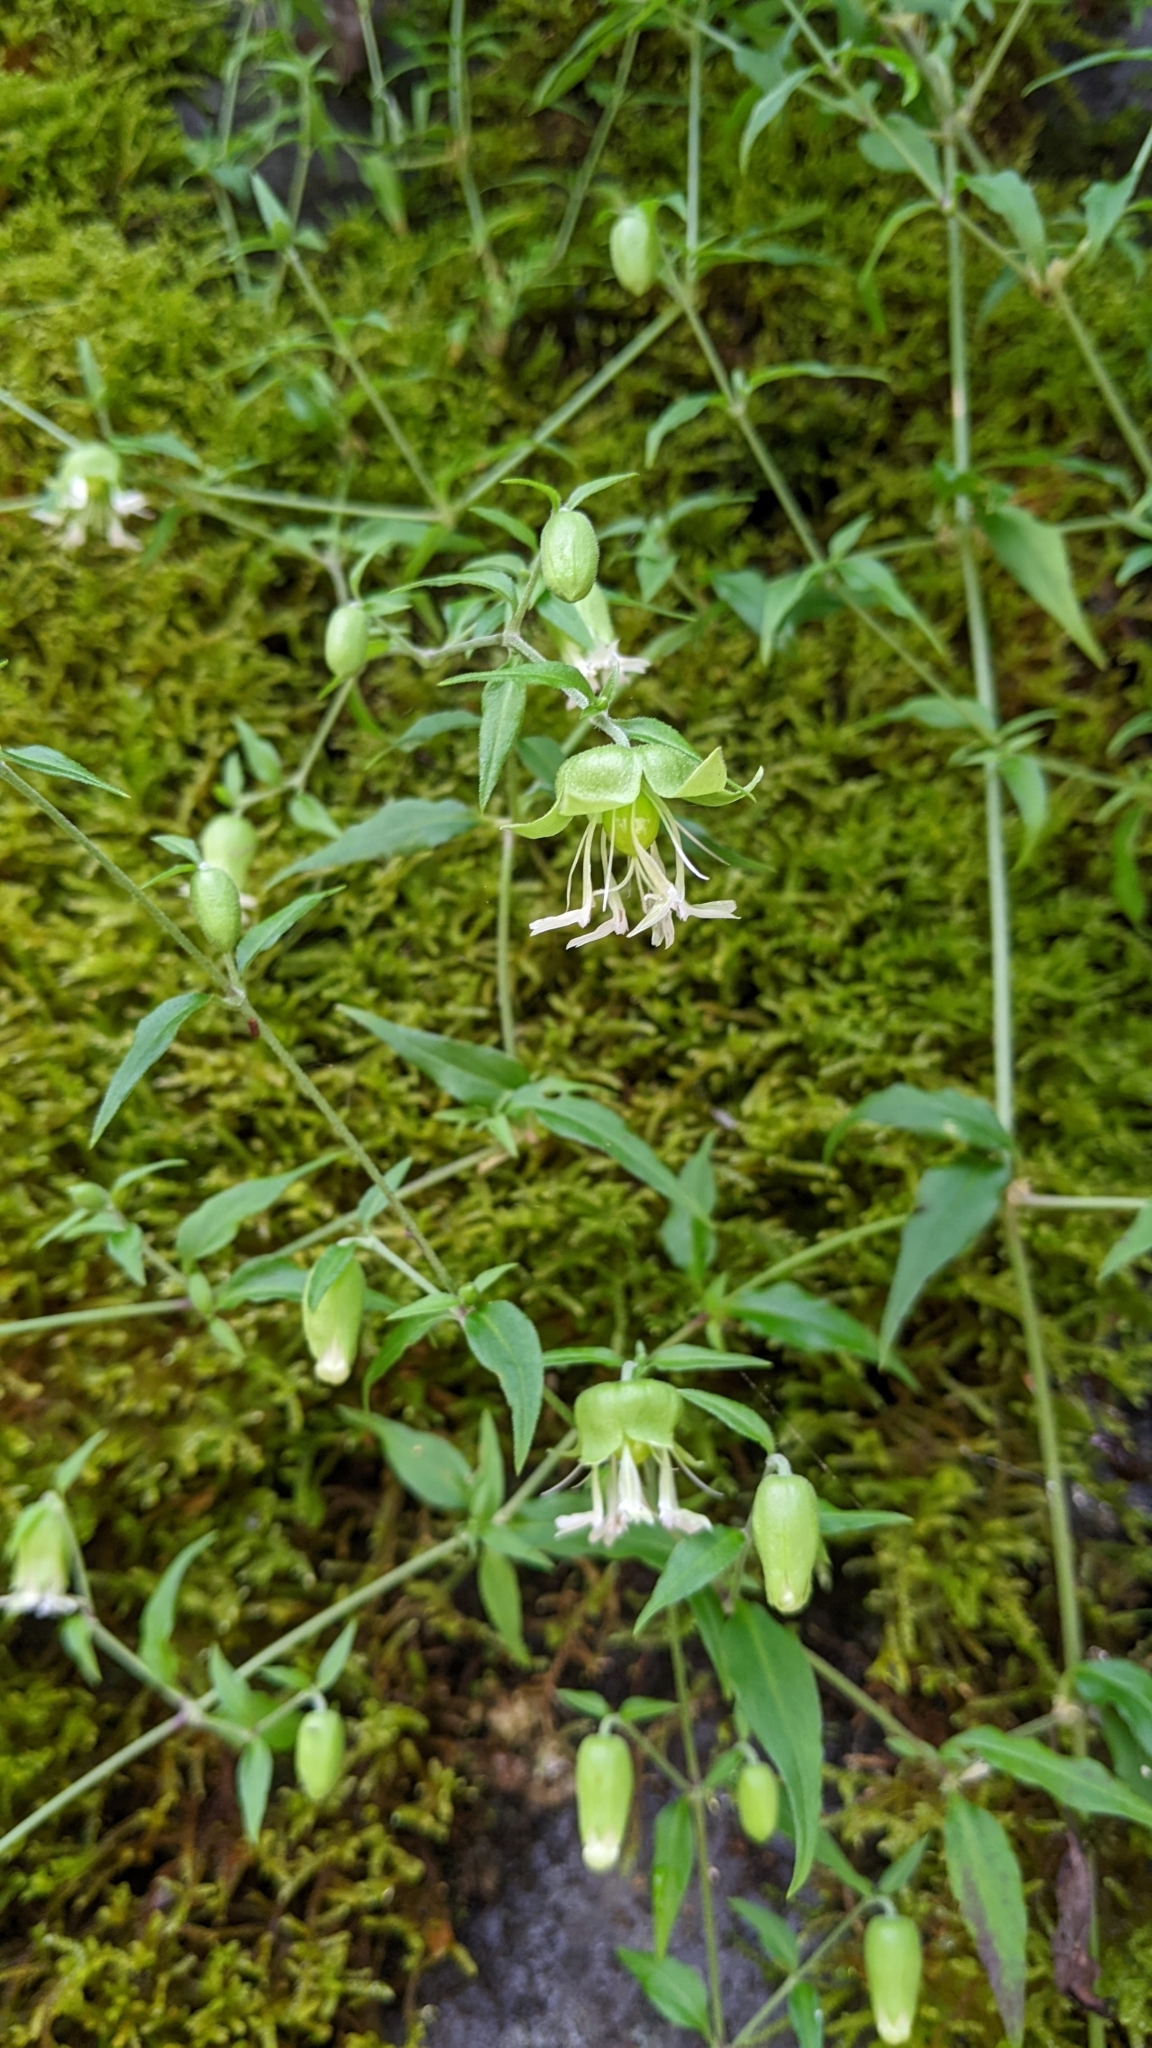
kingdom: Plantae
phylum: Tracheophyta
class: Magnoliopsida
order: Caryophyllales
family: Caryophyllaceae
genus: Silene
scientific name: Silene baccifera
